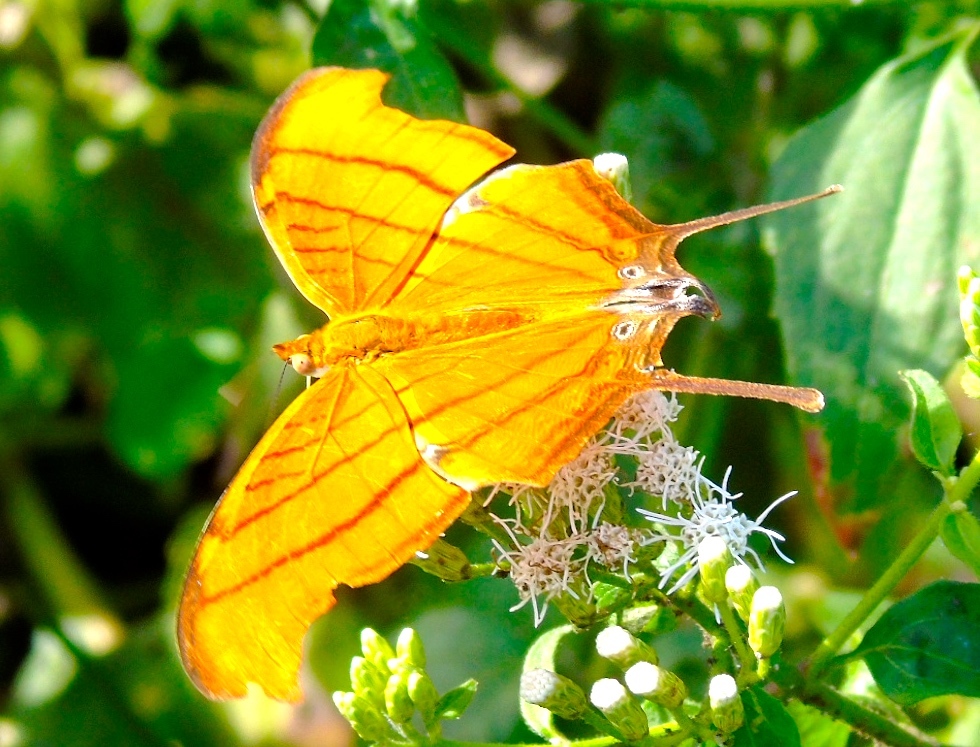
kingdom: Animalia
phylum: Arthropoda
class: Insecta
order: Lepidoptera
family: Nymphalidae
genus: Marpesia
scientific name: Marpesia petreus
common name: Red dagger wing
